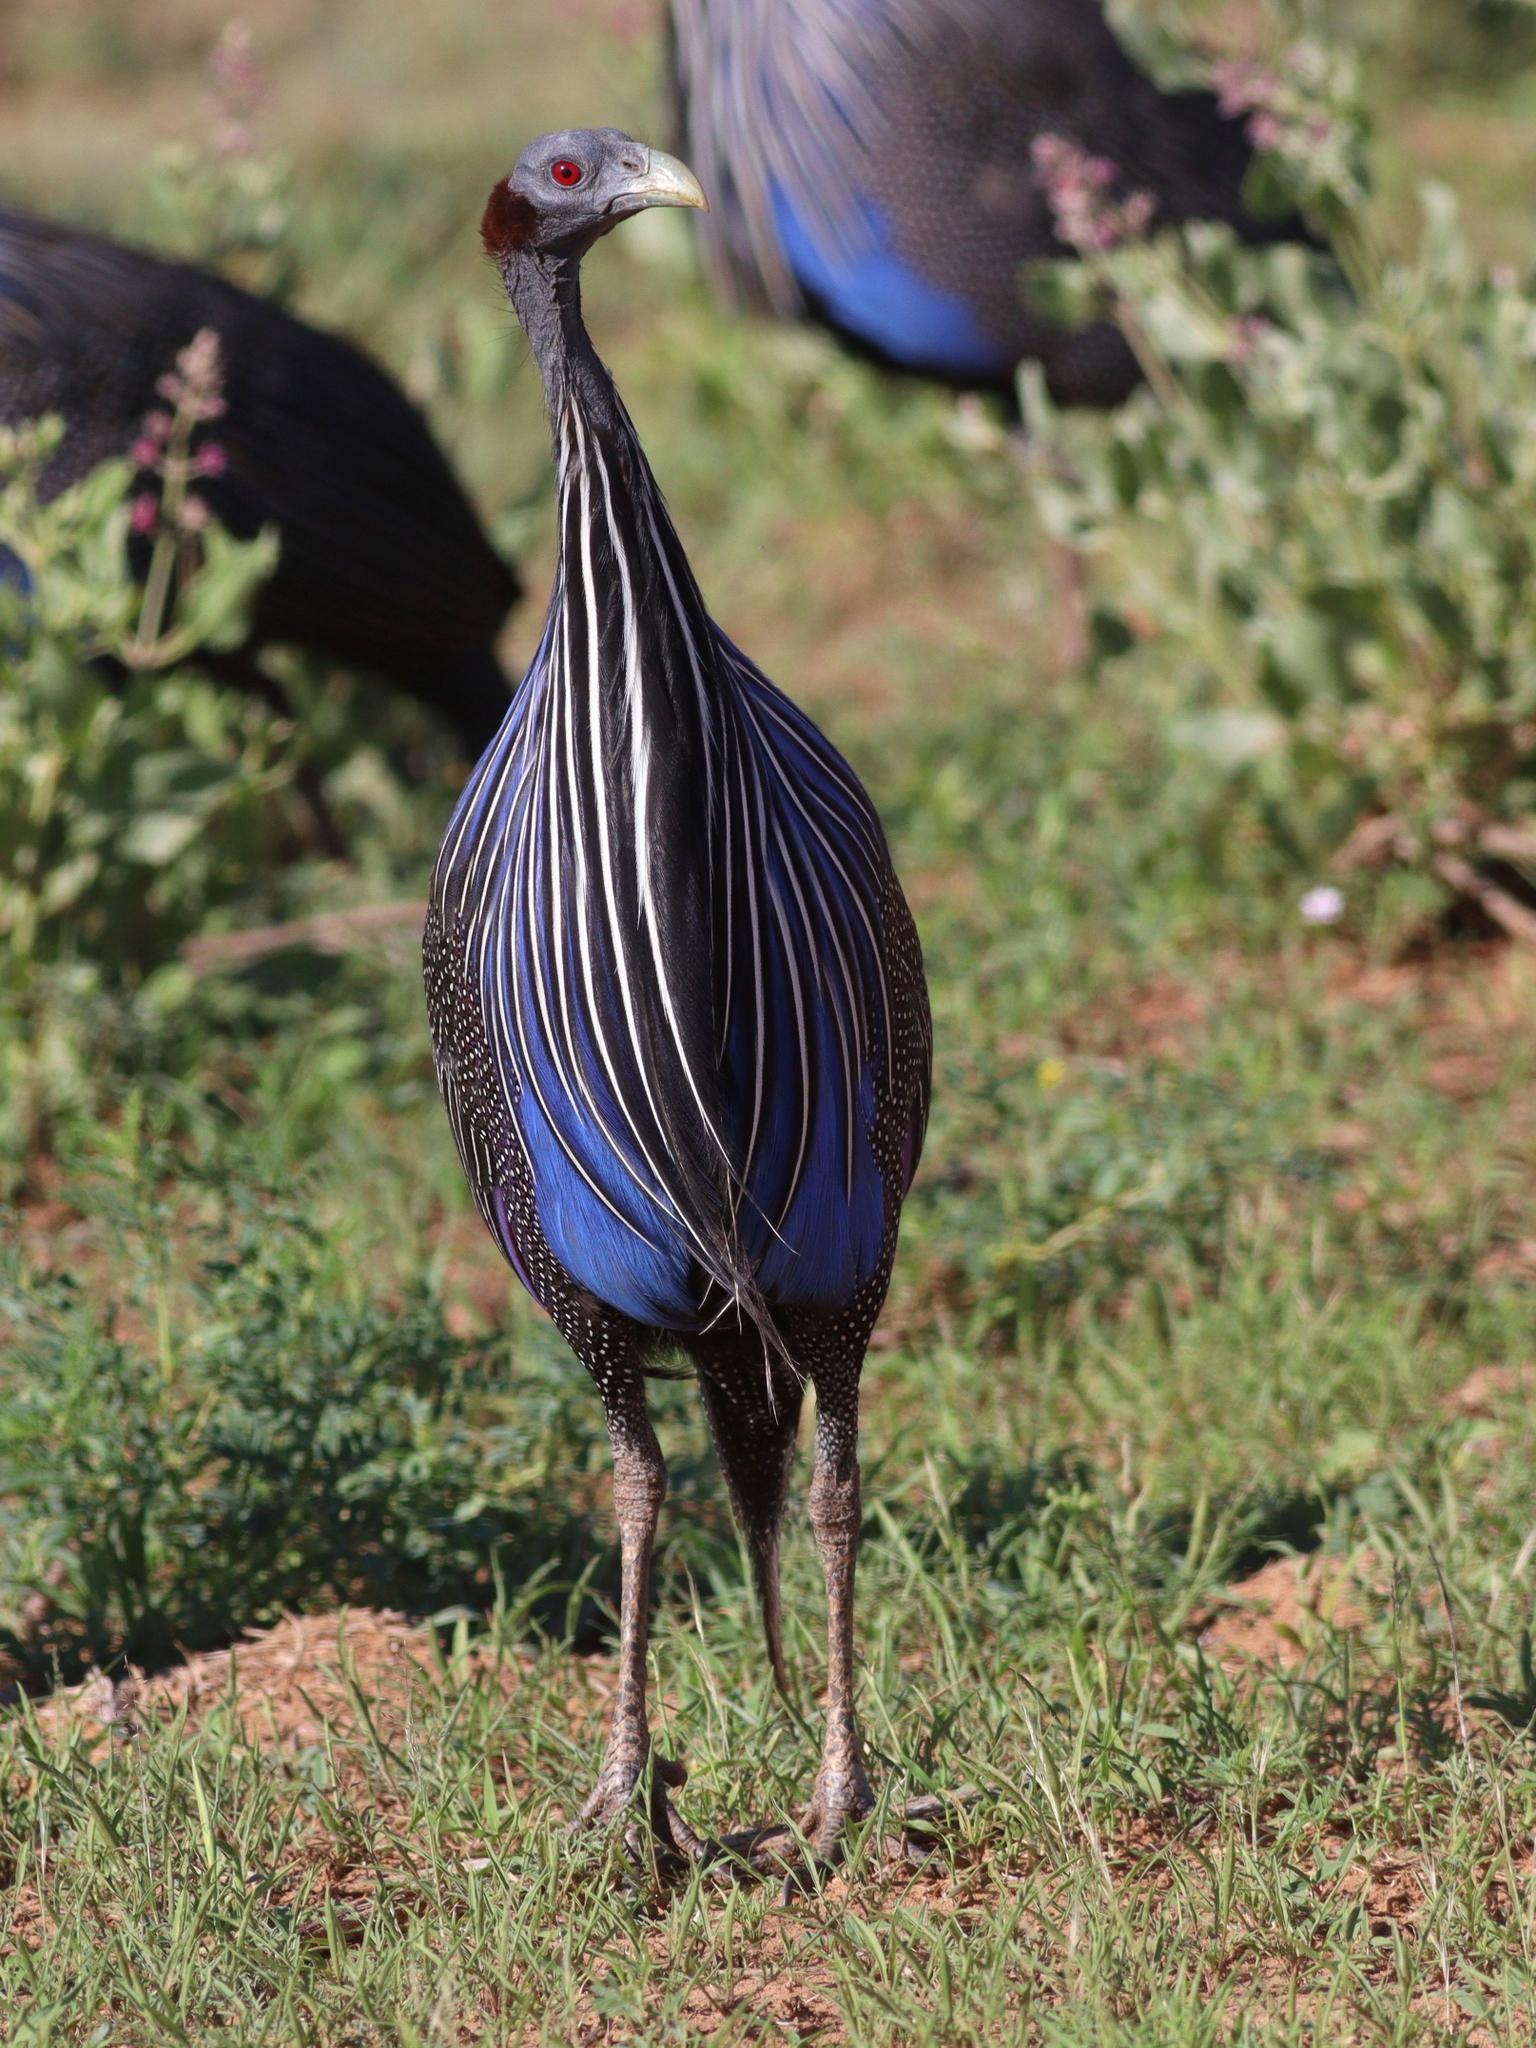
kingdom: Animalia
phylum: Chordata
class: Aves
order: Galliformes
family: Numididae
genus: Acryllium
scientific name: Acryllium vulturinum
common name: Vulturine guineafowl
